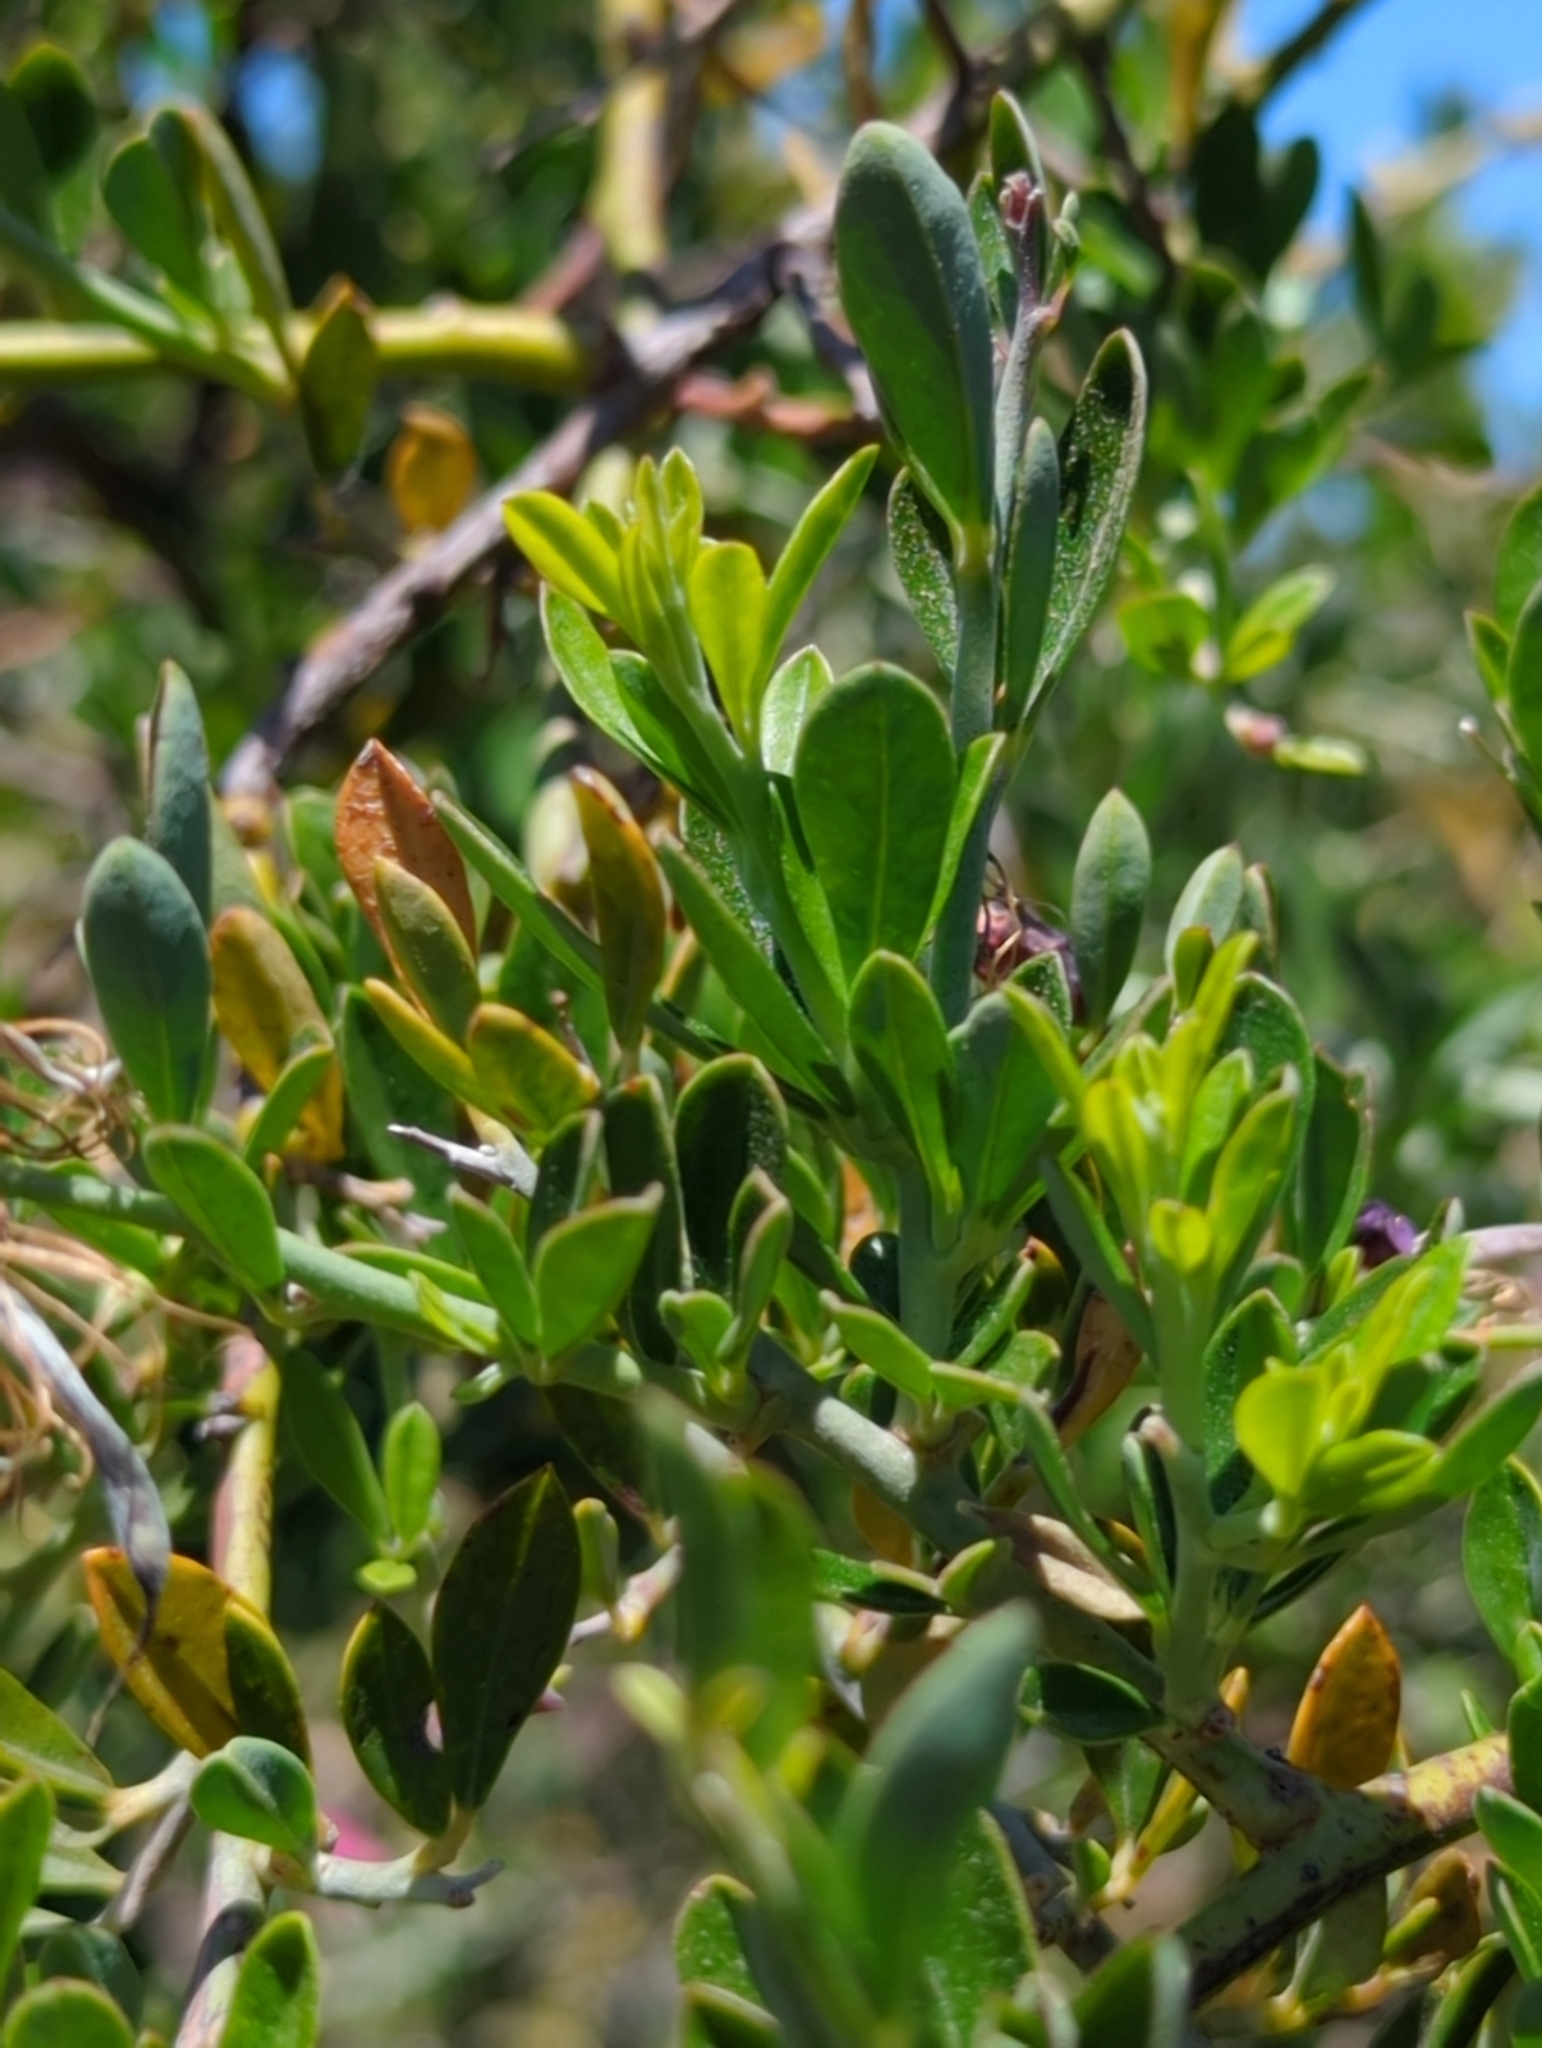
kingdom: Plantae
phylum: Tracheophyta
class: Magnoliopsida
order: Fabales
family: Fabaceae
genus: Pickeringia
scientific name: Pickeringia montana
